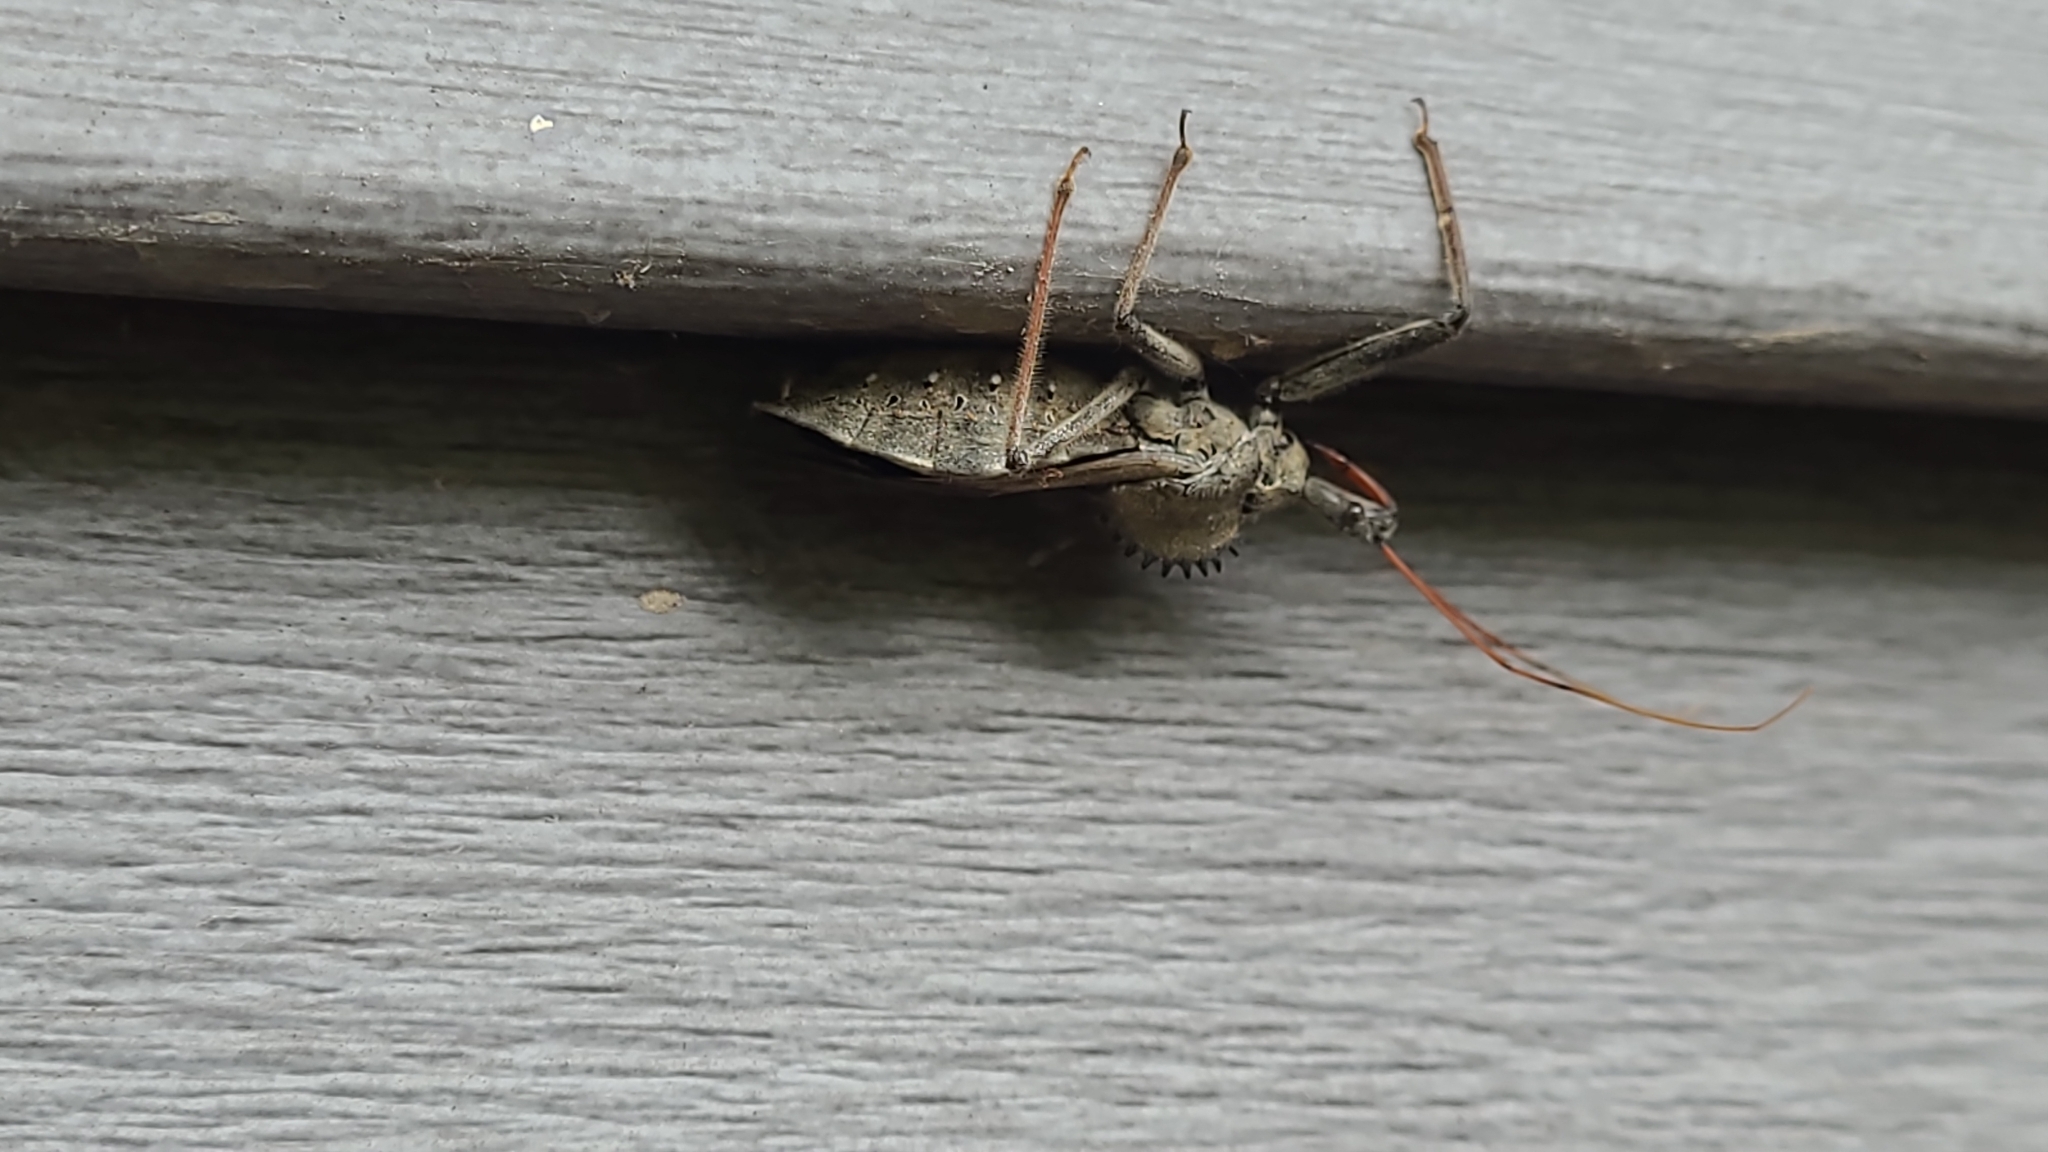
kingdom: Animalia
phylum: Arthropoda
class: Insecta
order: Hemiptera
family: Reduviidae
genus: Arilus
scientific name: Arilus cristatus
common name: North american wheel bug
